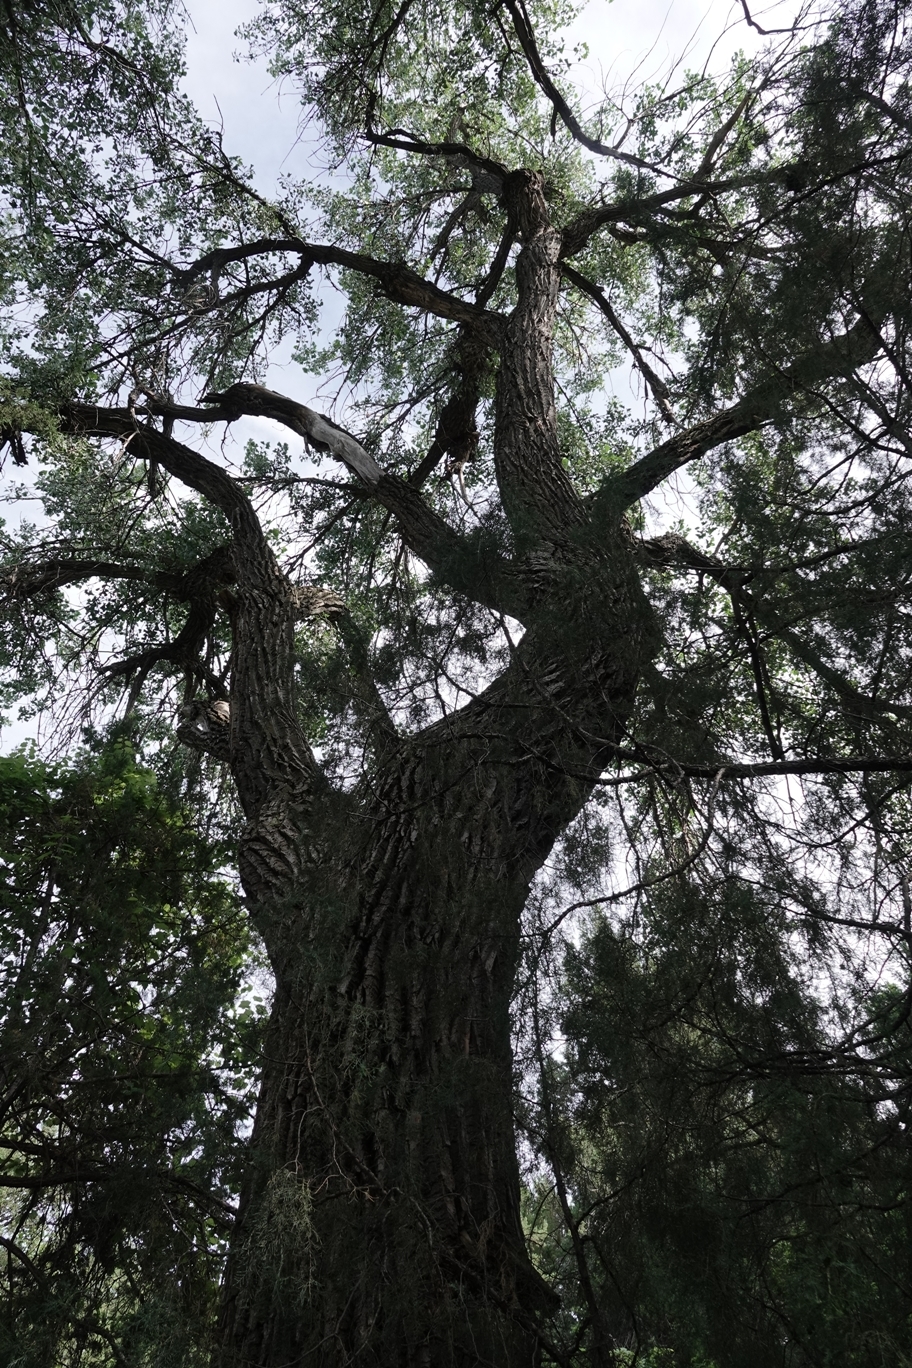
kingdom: Plantae
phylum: Tracheophyta
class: Magnoliopsida
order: Malpighiales
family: Salicaceae
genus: Populus
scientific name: Populus deltoides
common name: Eastern cottonwood
